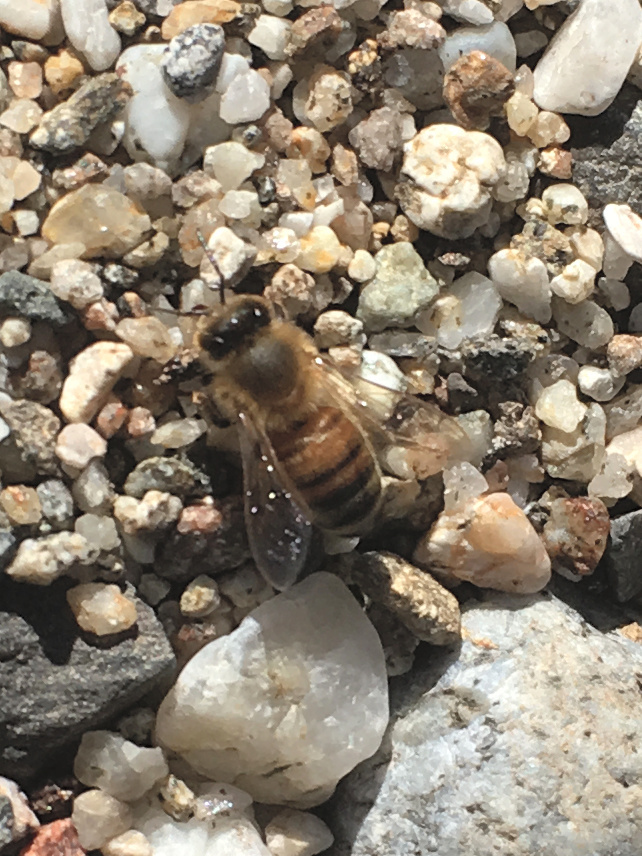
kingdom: Animalia
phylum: Arthropoda
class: Insecta
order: Hymenoptera
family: Apidae
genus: Apis
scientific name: Apis mellifera
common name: Honey bee
